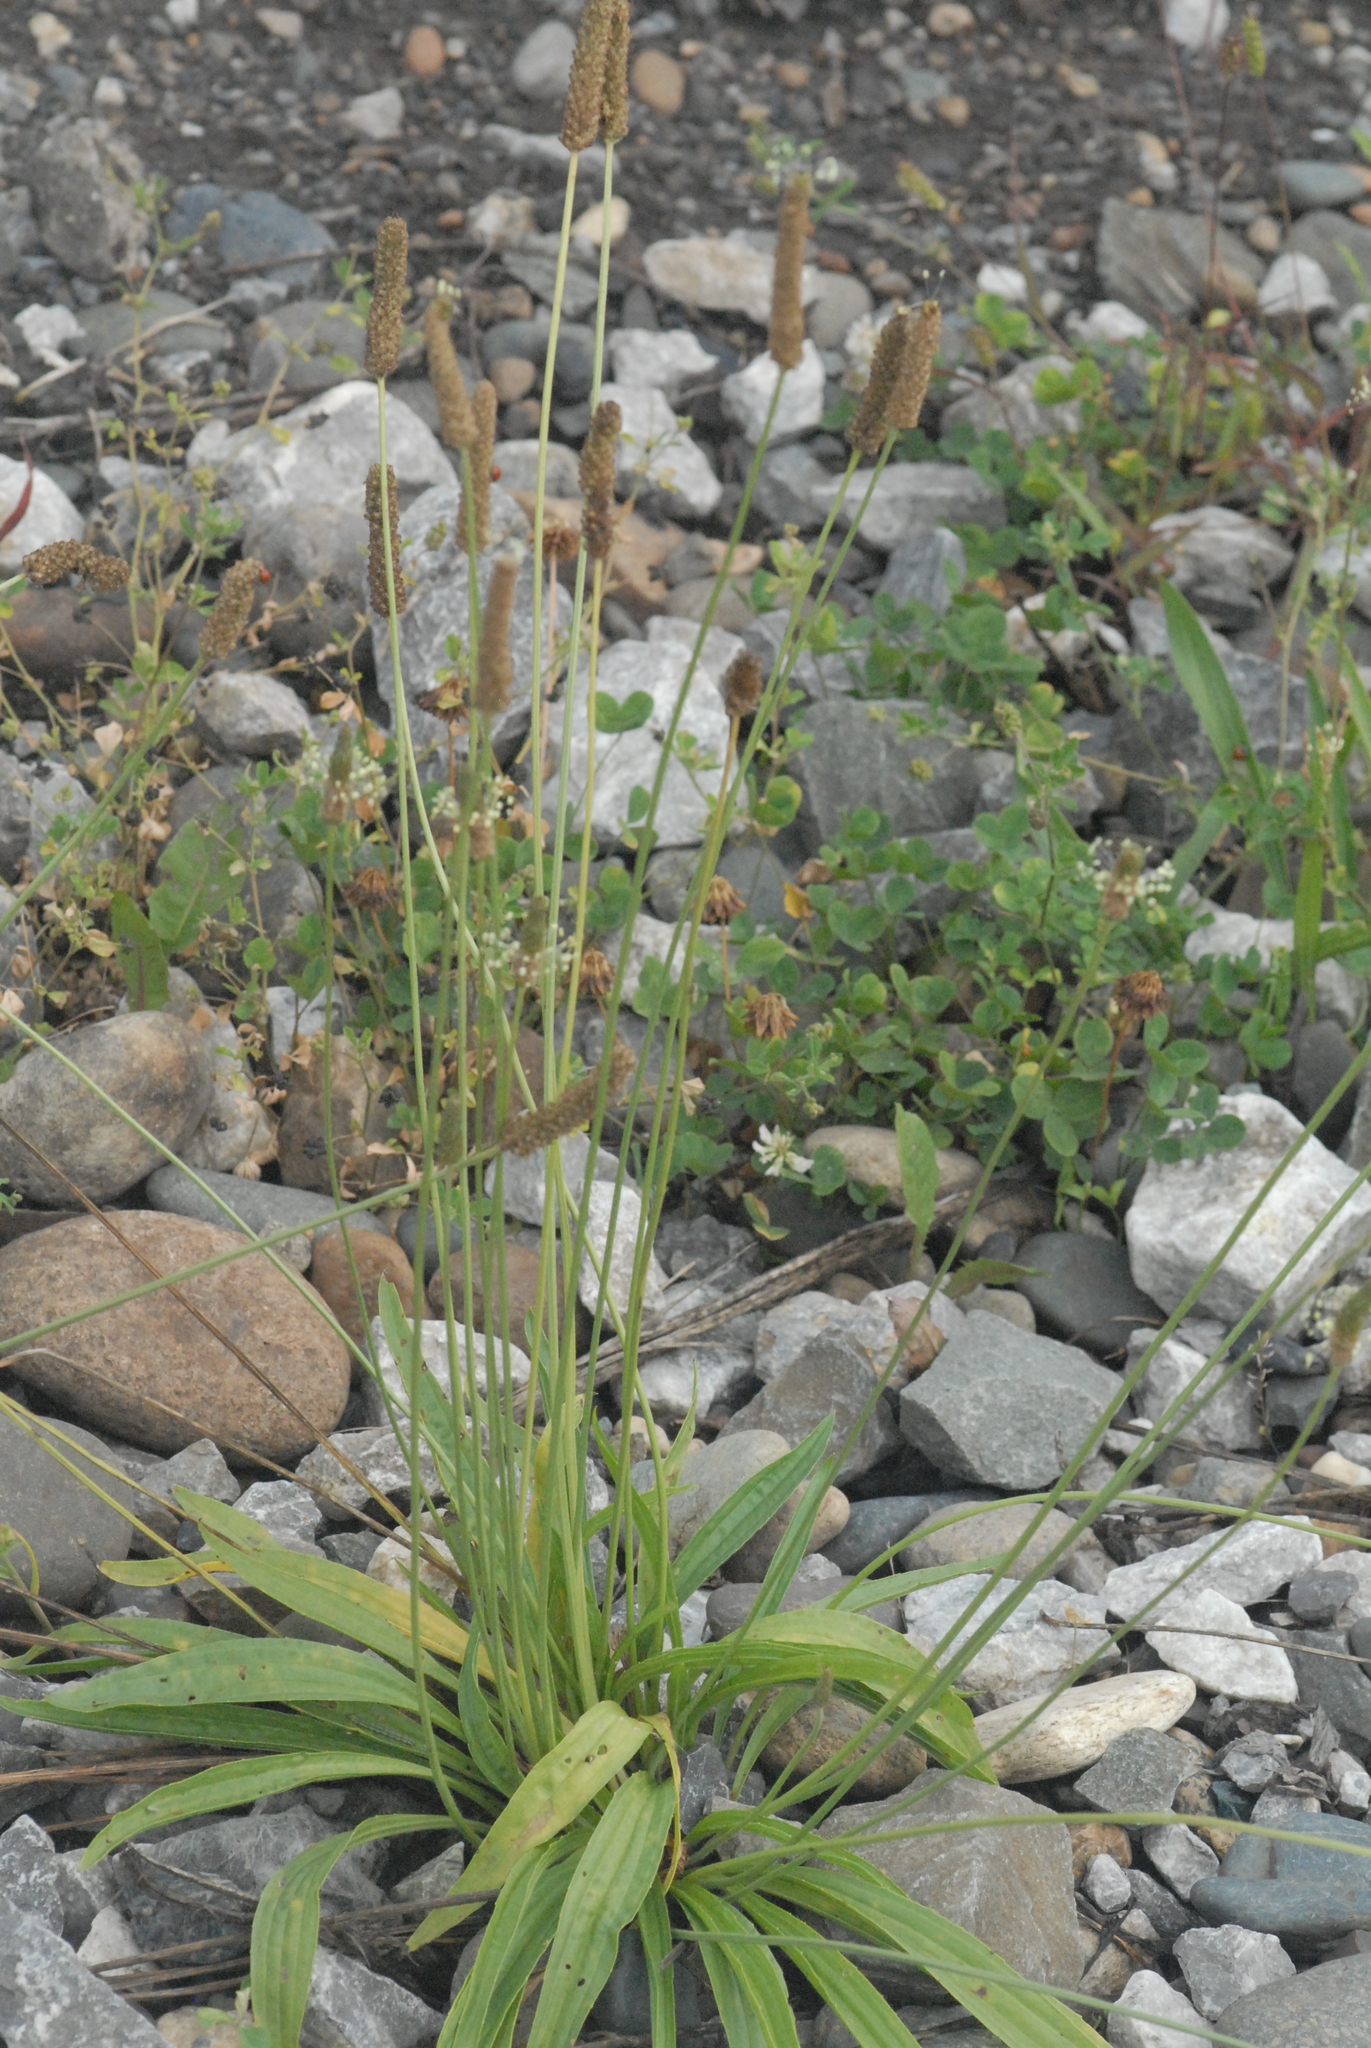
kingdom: Plantae
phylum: Tracheophyta
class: Magnoliopsida
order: Lamiales
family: Plantaginaceae
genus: Plantago
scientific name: Plantago lanceolata
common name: Ribwort plantain
